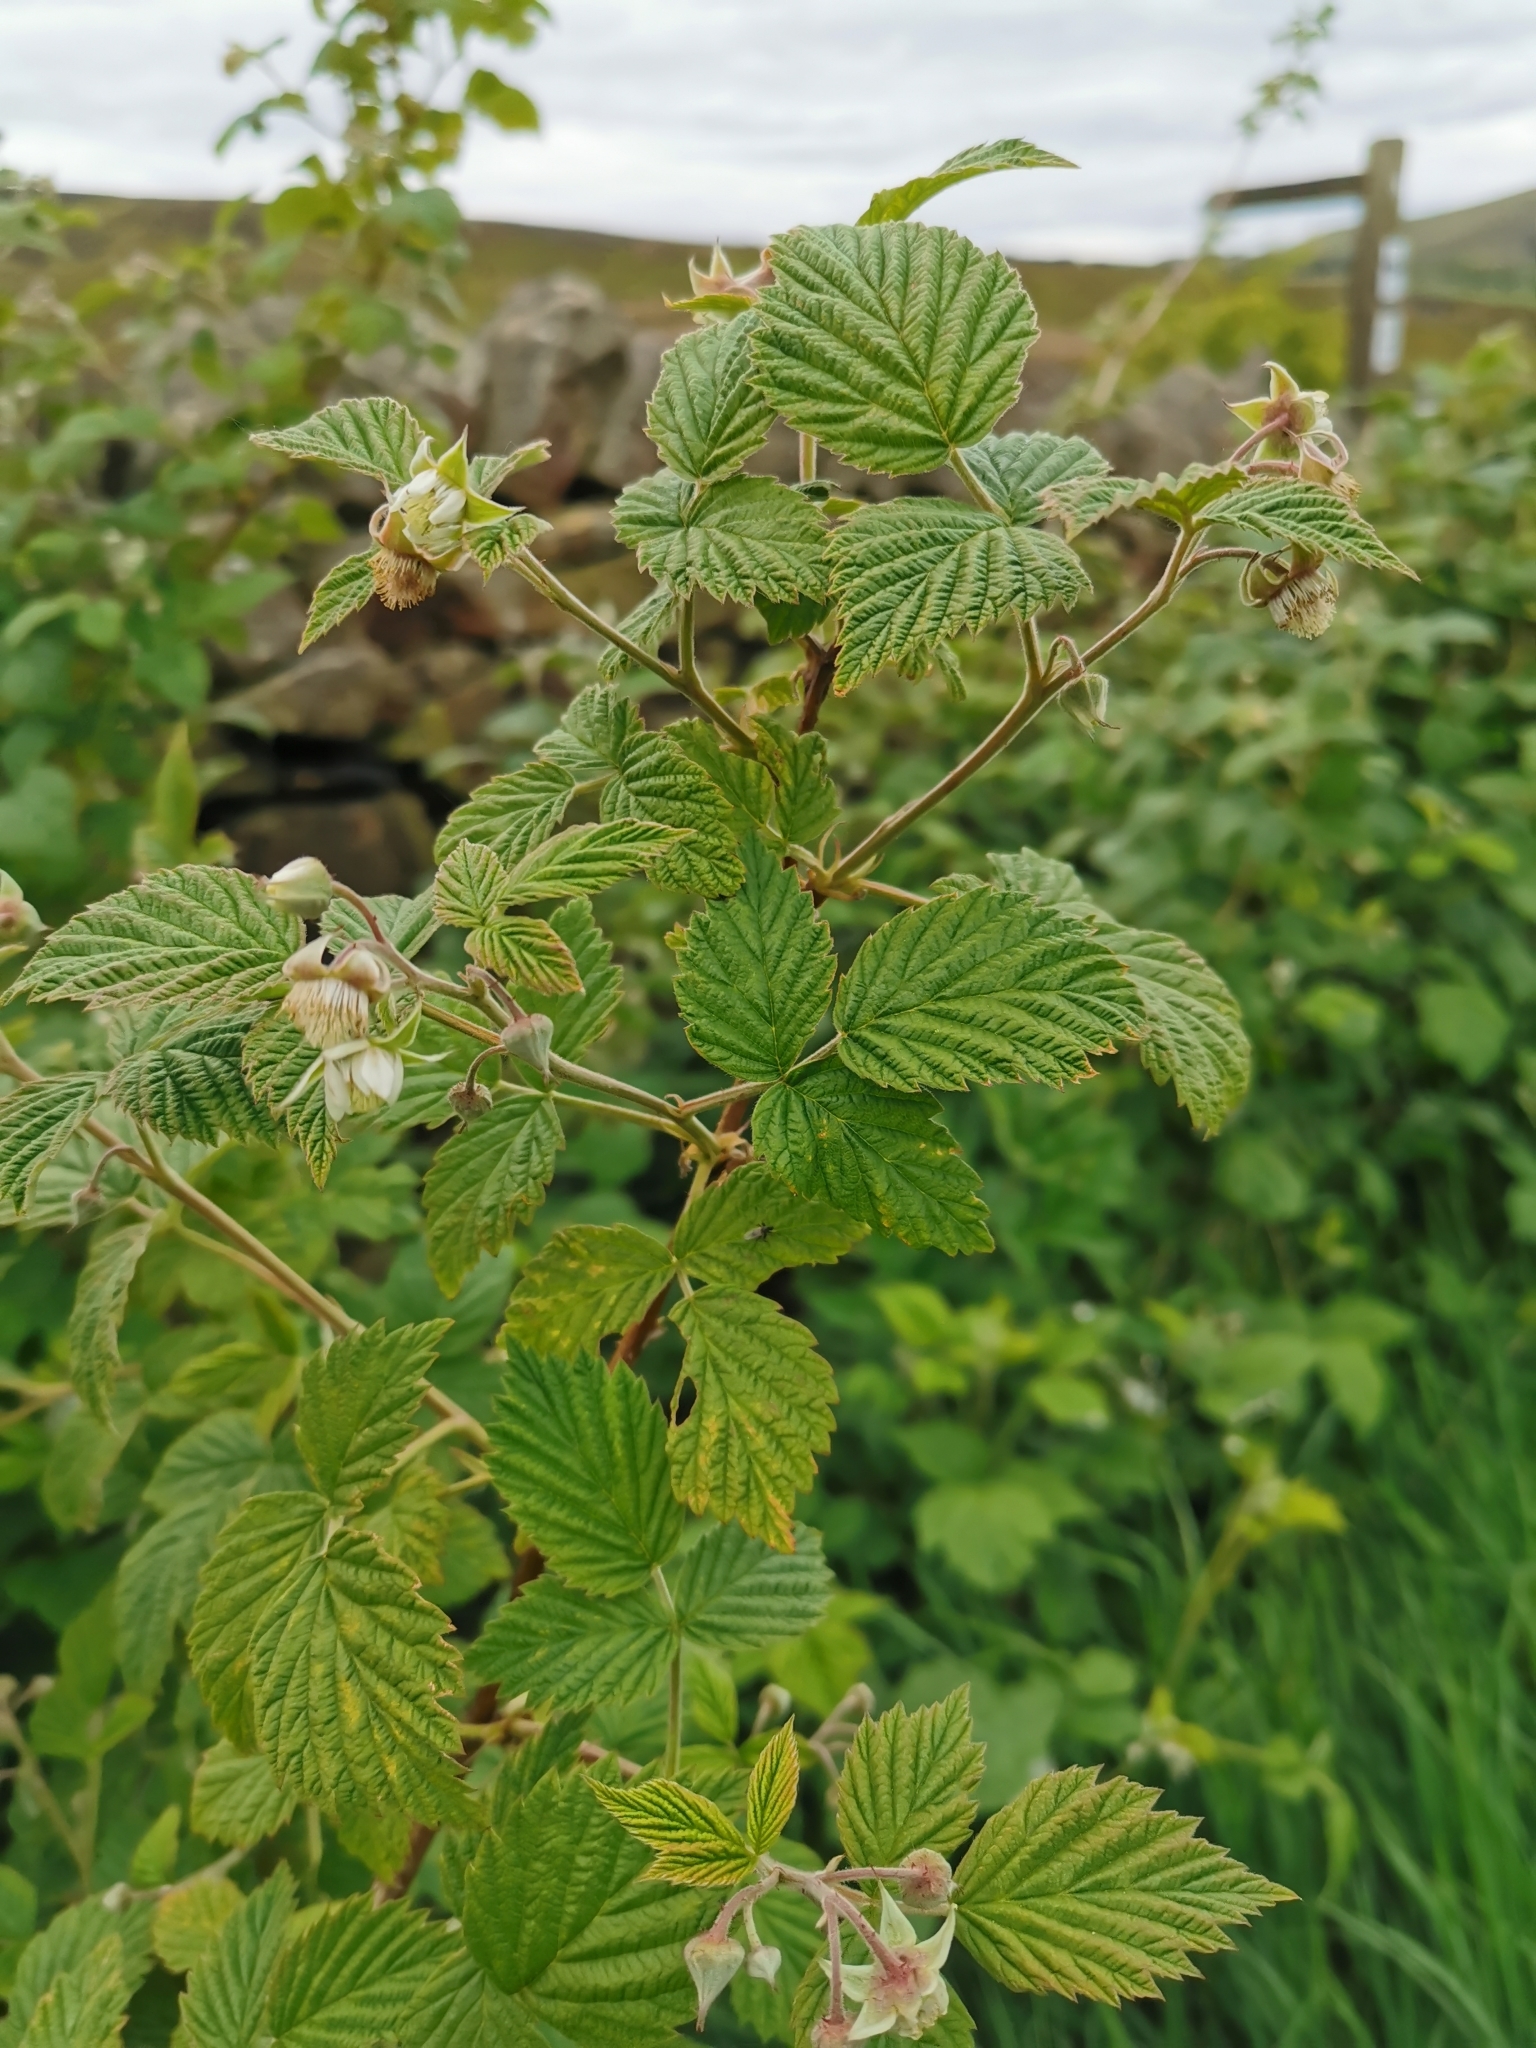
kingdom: Plantae
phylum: Tracheophyta
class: Magnoliopsida
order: Rosales
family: Rosaceae
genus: Rubus
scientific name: Rubus idaeus
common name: Raspberry
